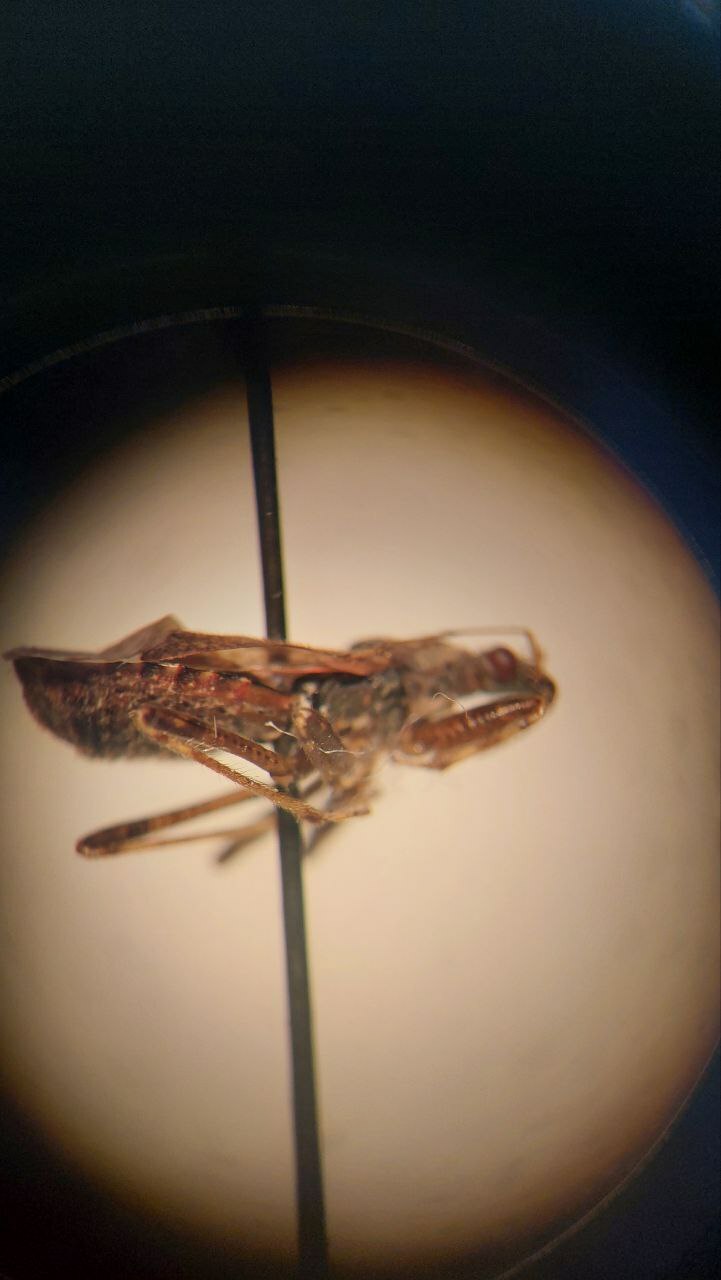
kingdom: Animalia
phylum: Arthropoda
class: Insecta
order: Hemiptera
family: Nabidae
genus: Himacerus
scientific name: Himacerus mirmicoides
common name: Ant damsel bug
